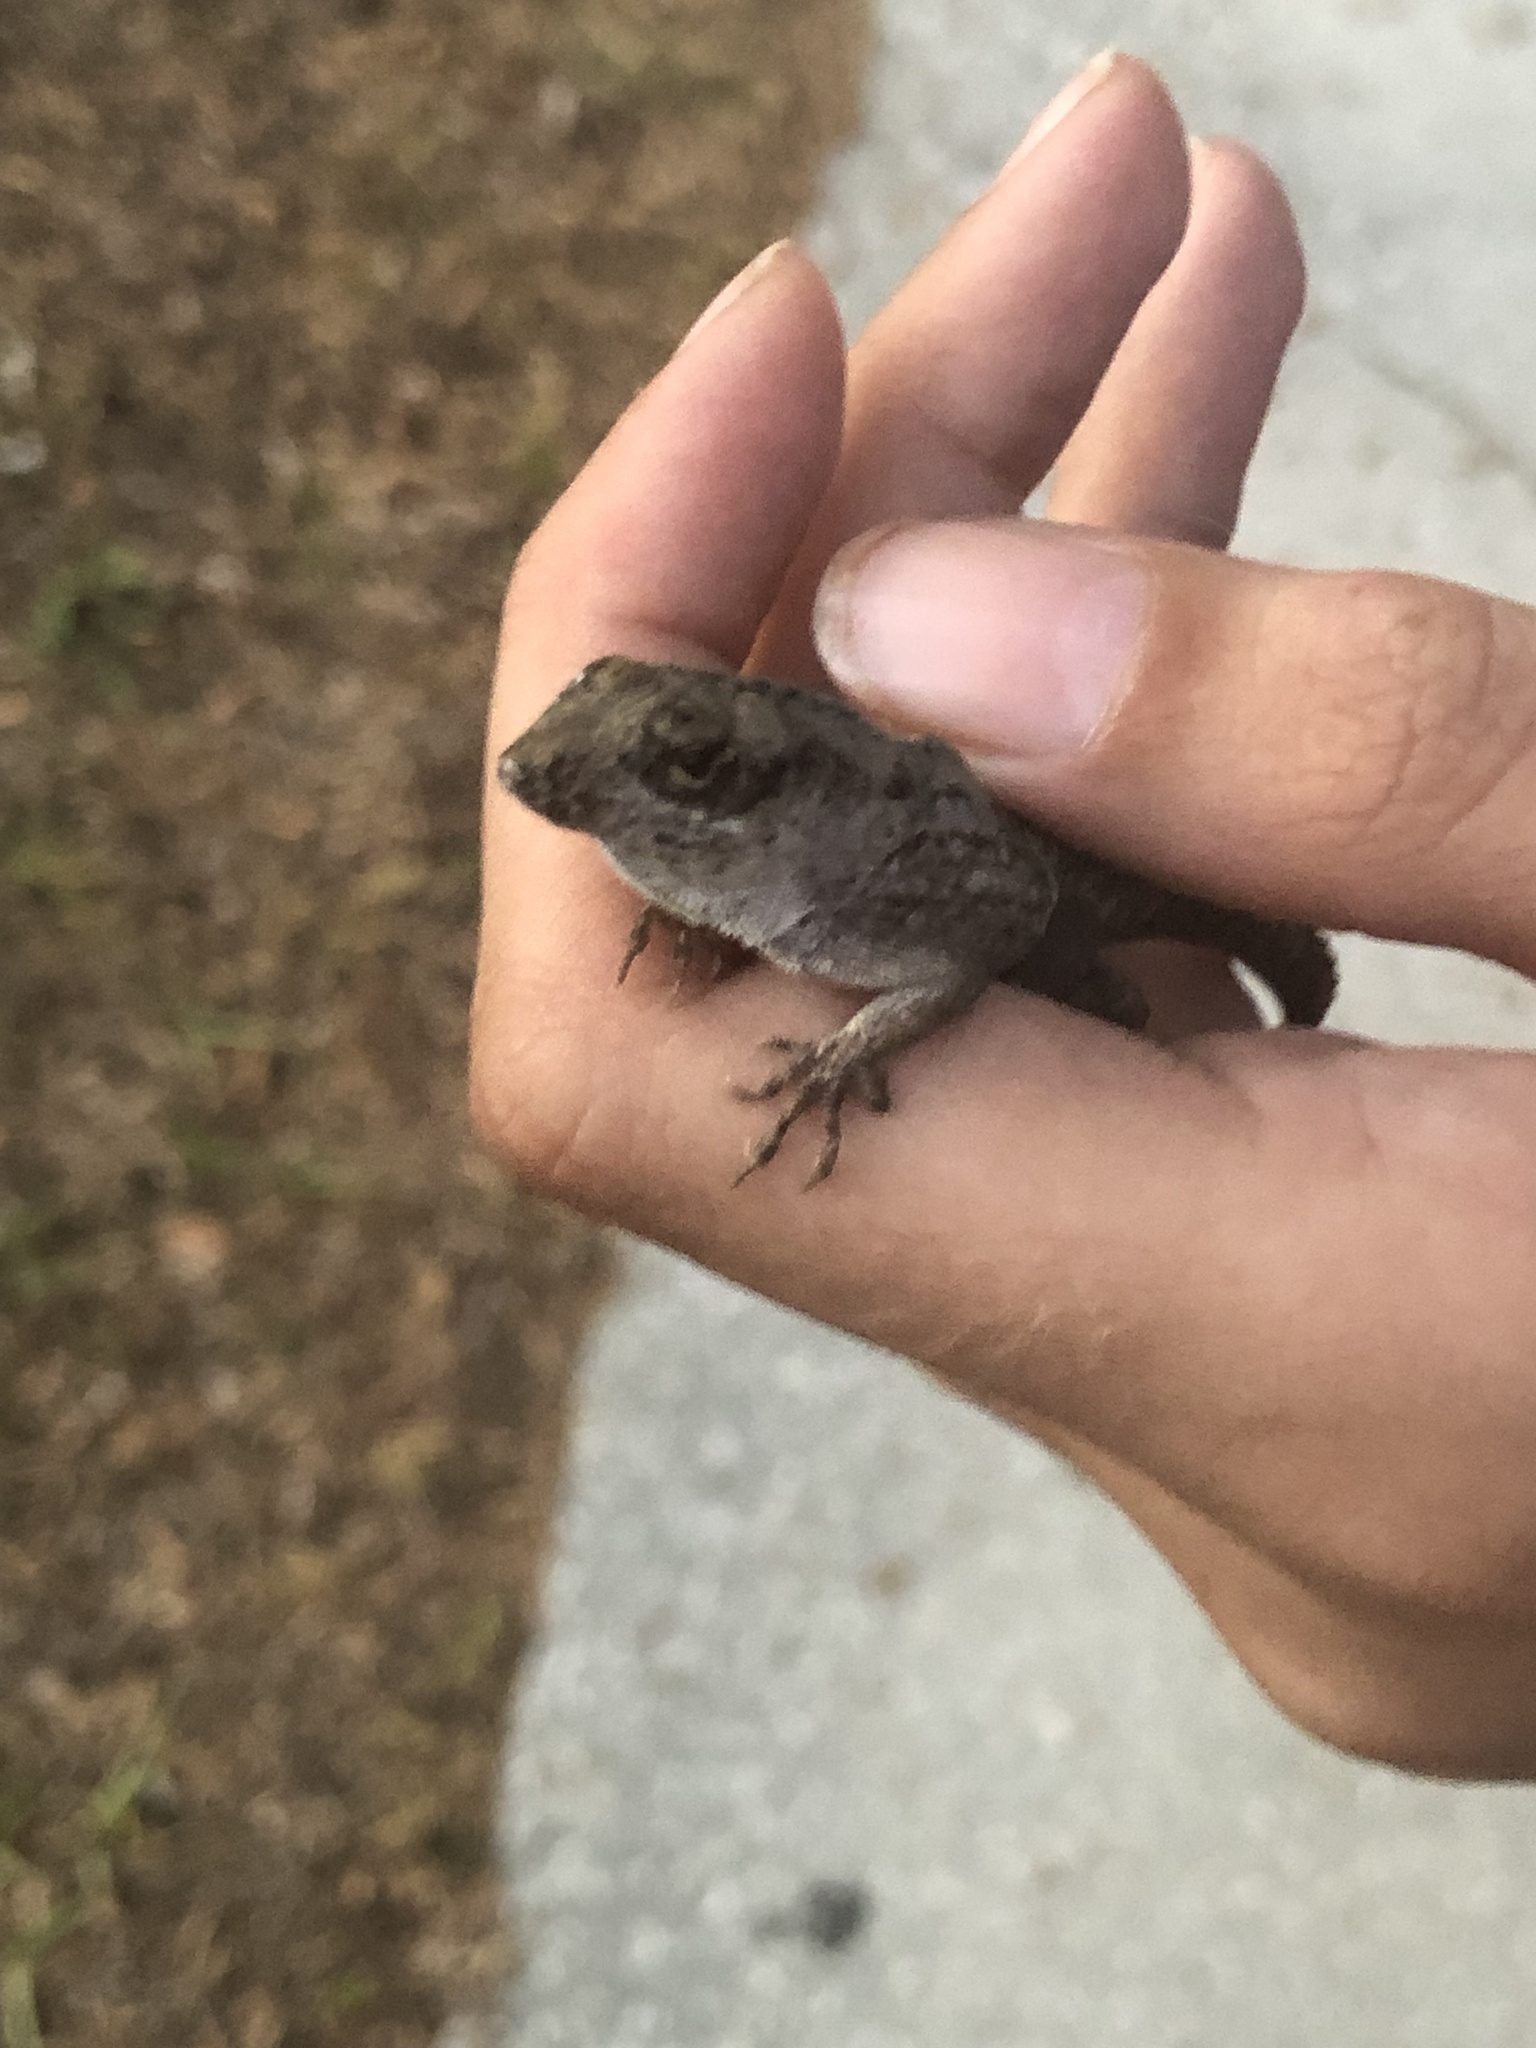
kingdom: Animalia
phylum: Chordata
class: Squamata
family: Dactyloidae
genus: Anolis
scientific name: Anolis sagrei
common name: Brown anole
